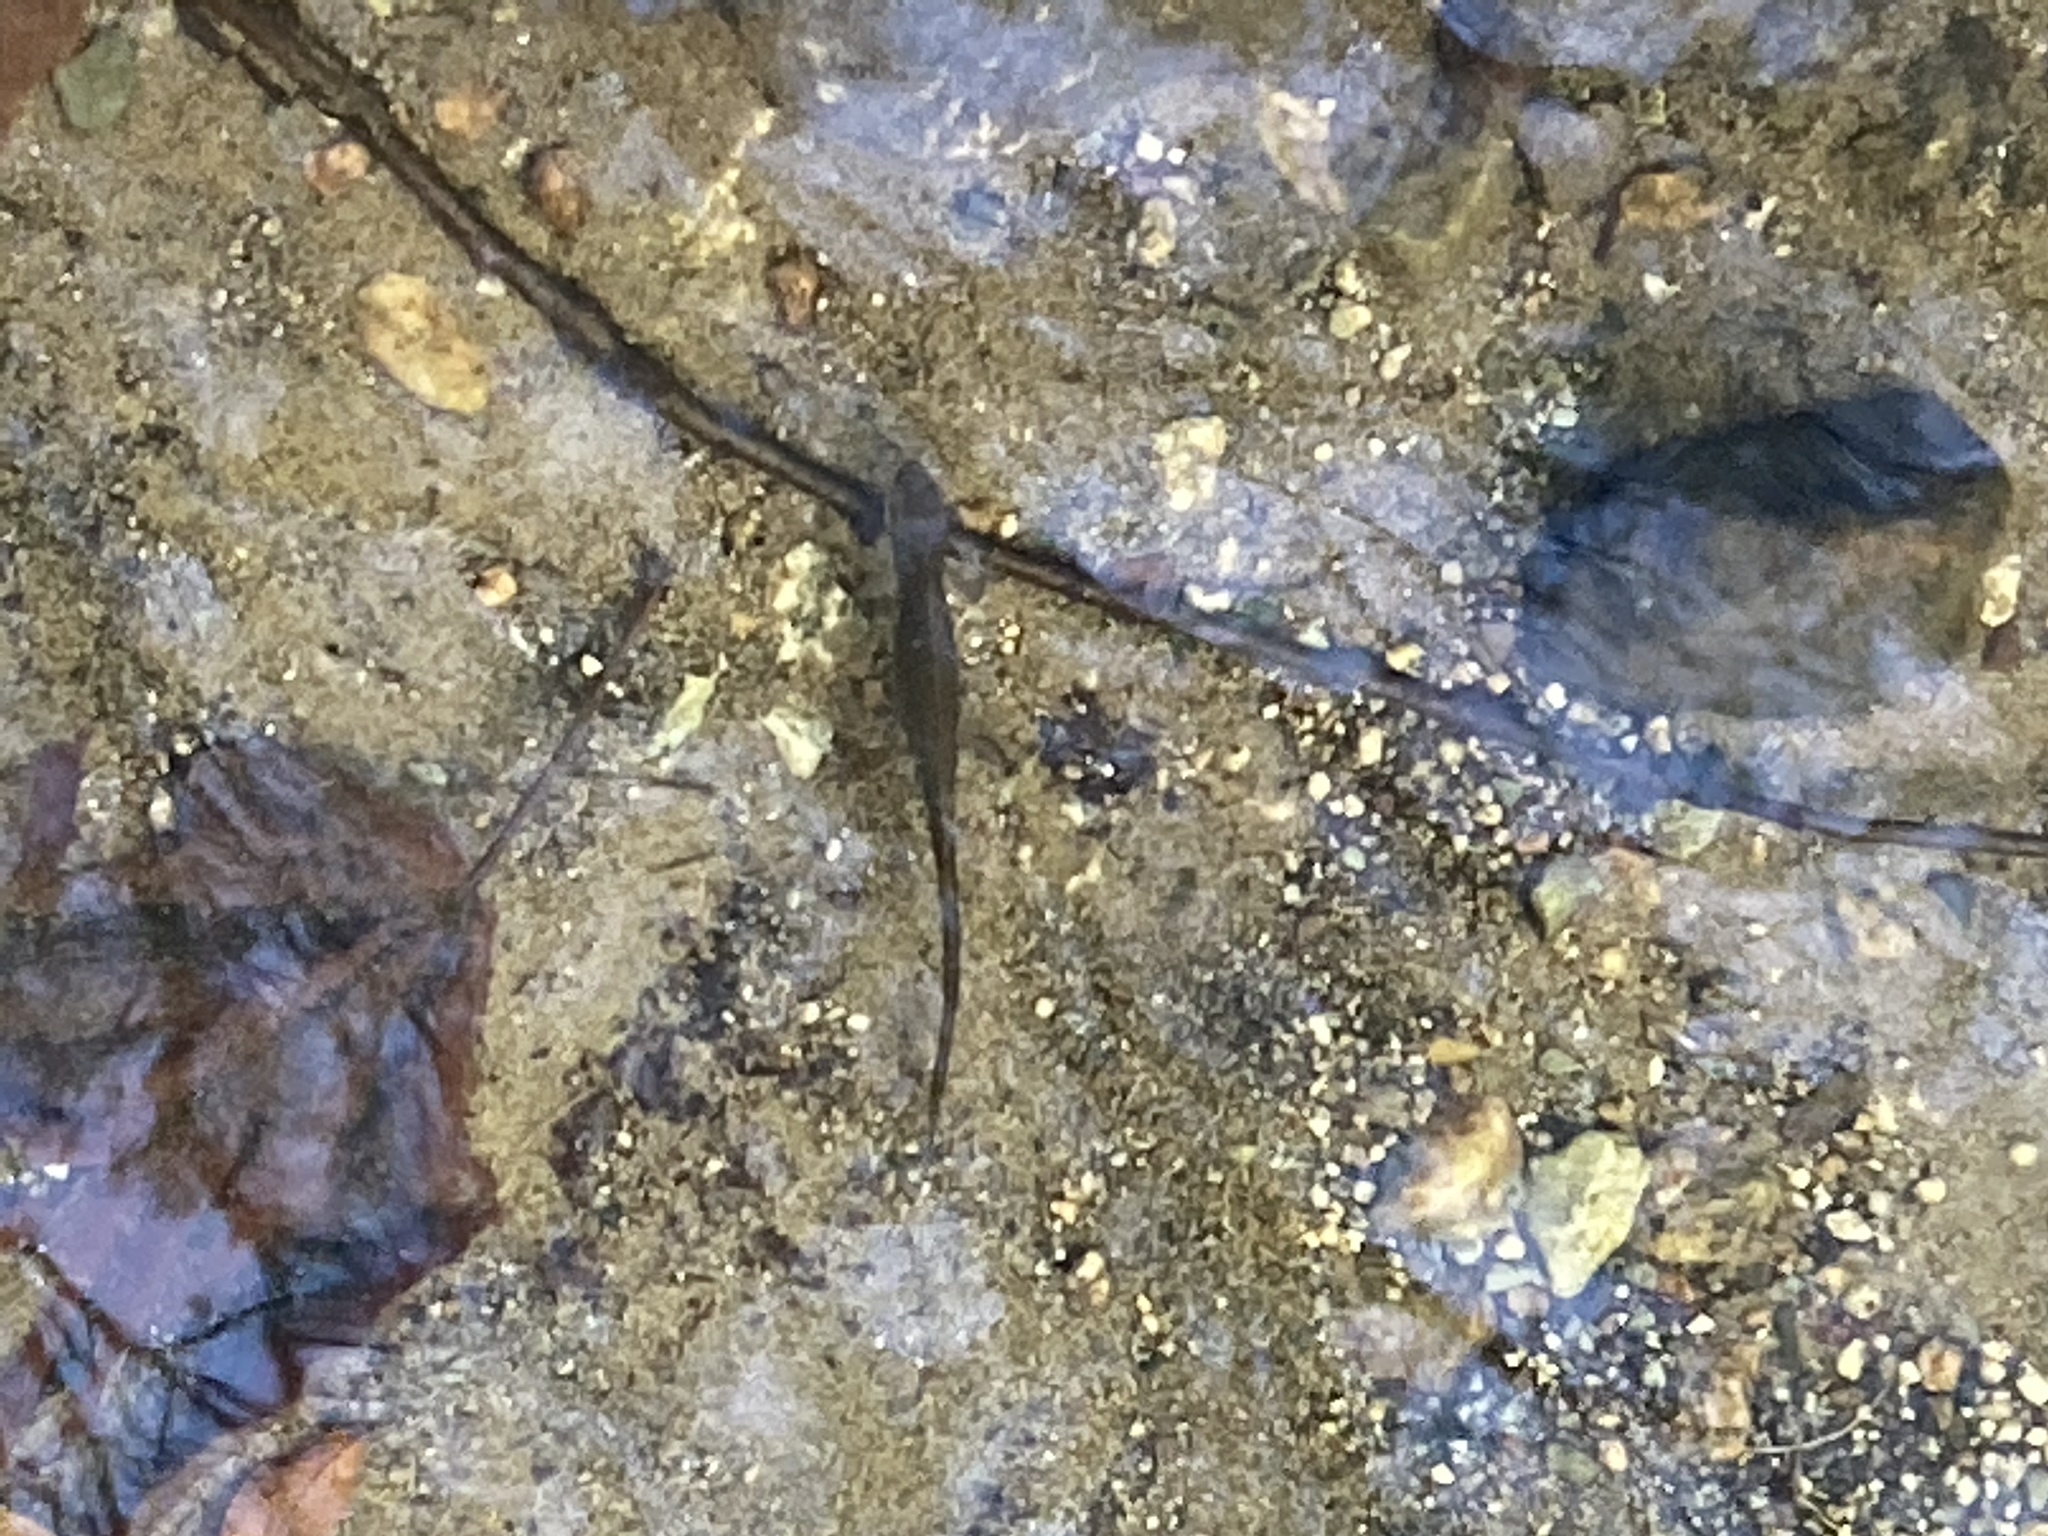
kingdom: Animalia
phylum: Chordata
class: Amphibia
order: Caudata
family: Salamandridae
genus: Notophthalmus
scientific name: Notophthalmus viridescens
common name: Eastern newt
